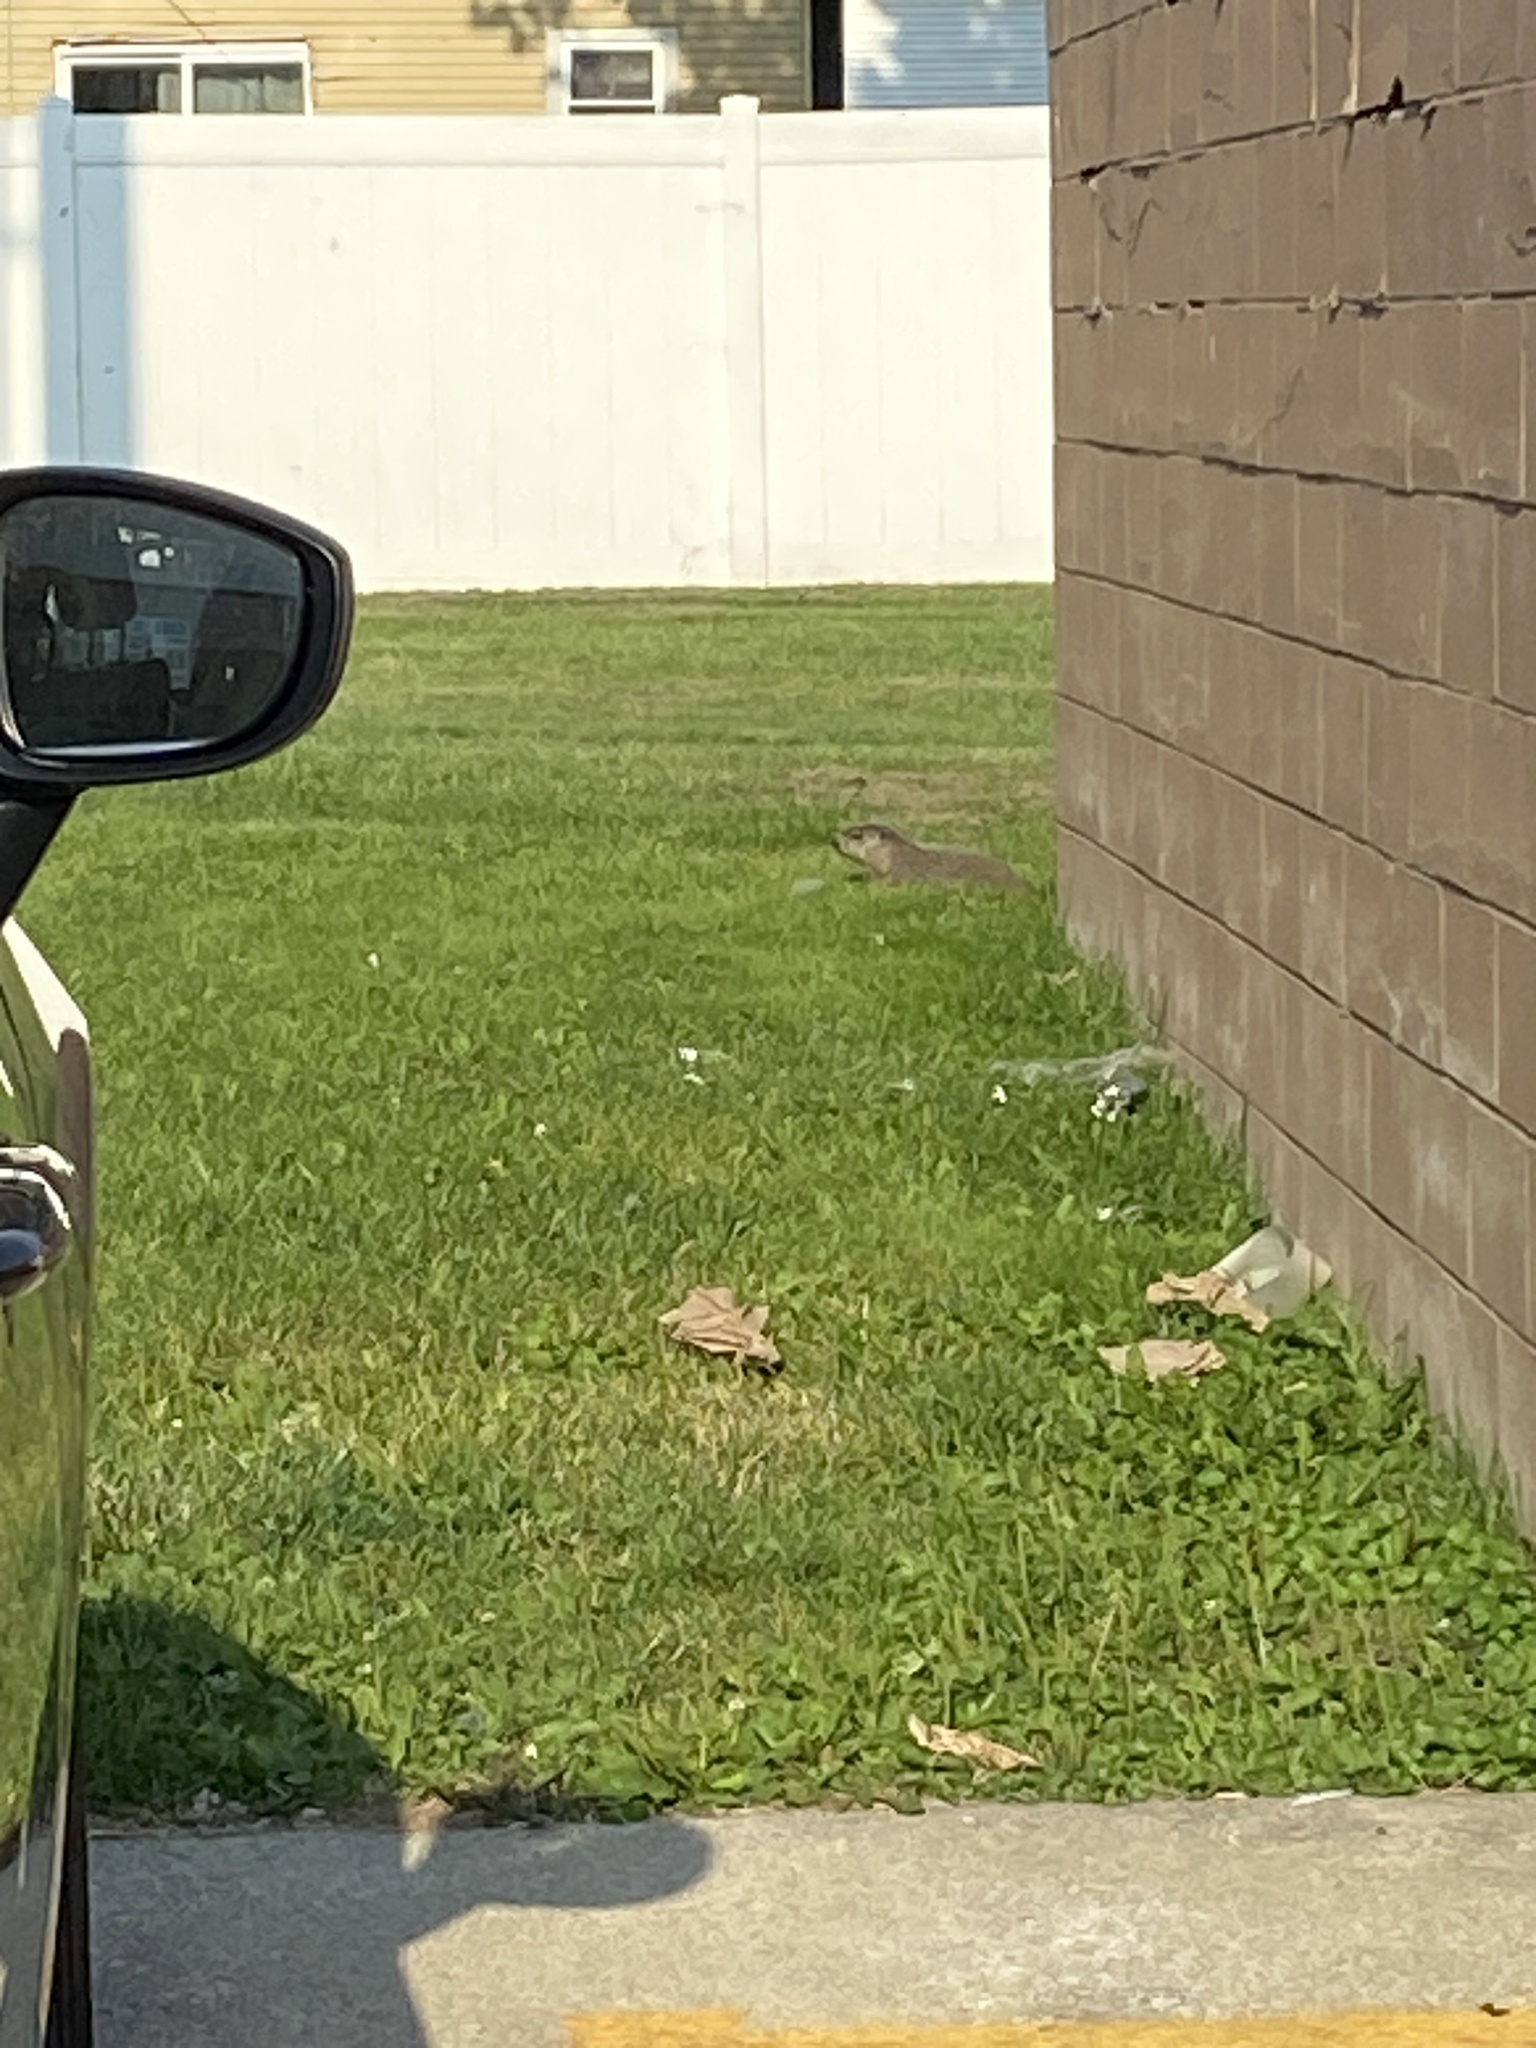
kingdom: Animalia
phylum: Chordata
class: Mammalia
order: Rodentia
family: Sciuridae
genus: Marmota
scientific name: Marmota monax
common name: Groundhog
